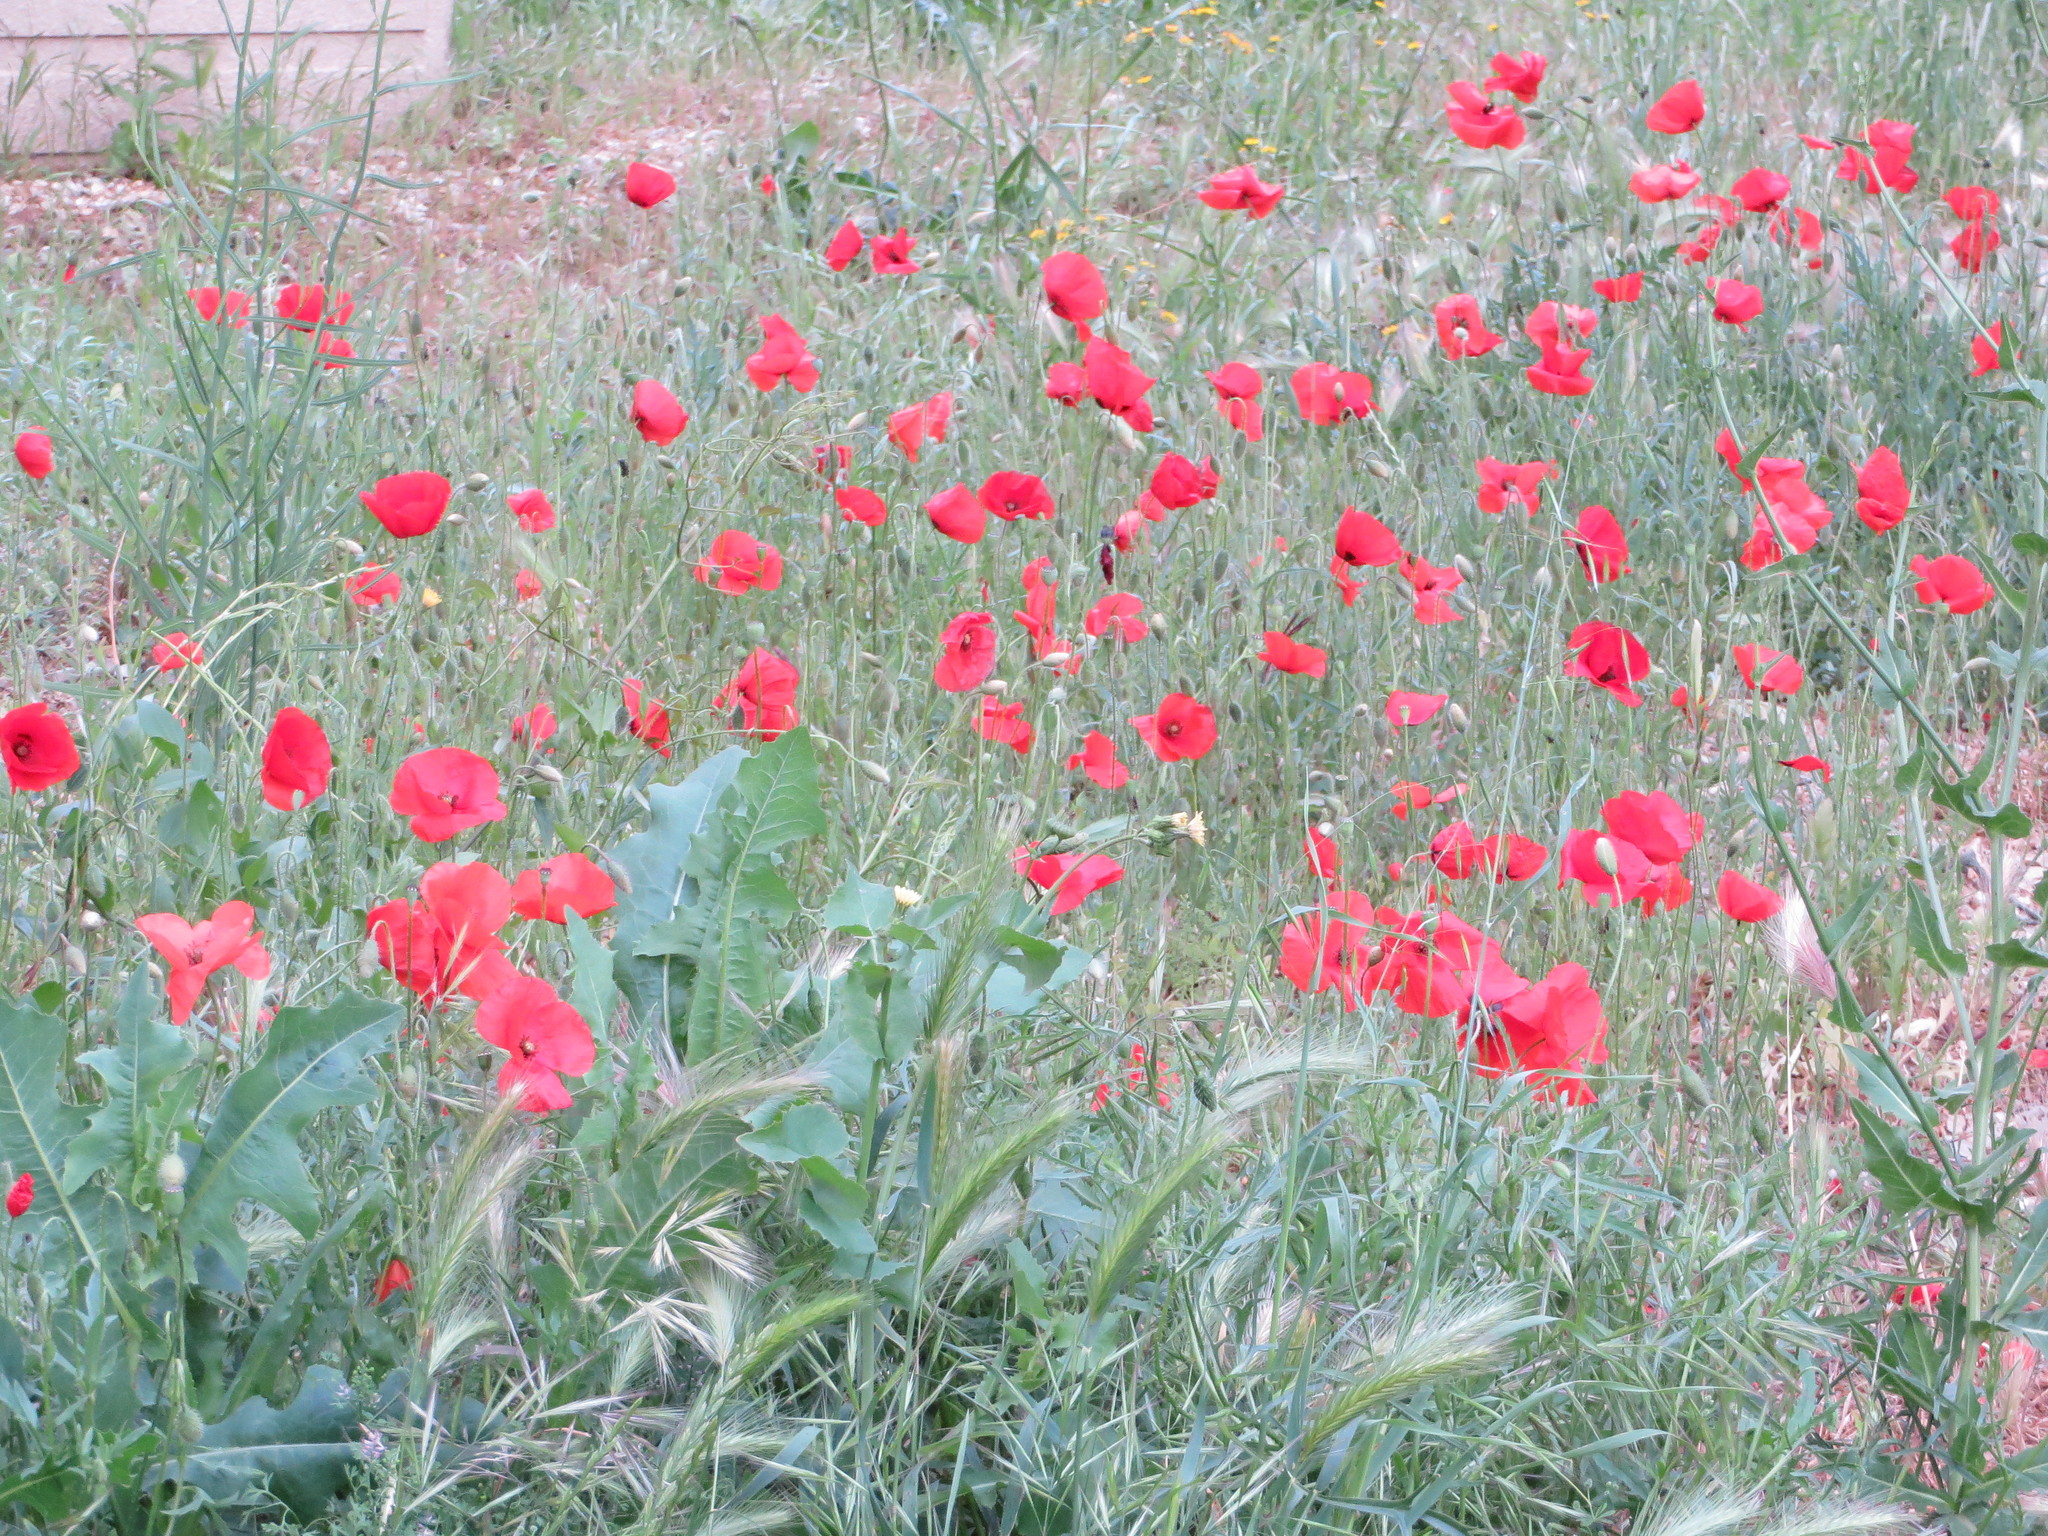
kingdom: Plantae
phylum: Tracheophyta
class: Magnoliopsida
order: Ranunculales
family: Papaveraceae
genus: Papaver
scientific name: Papaver rhoeas
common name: Corn poppy
